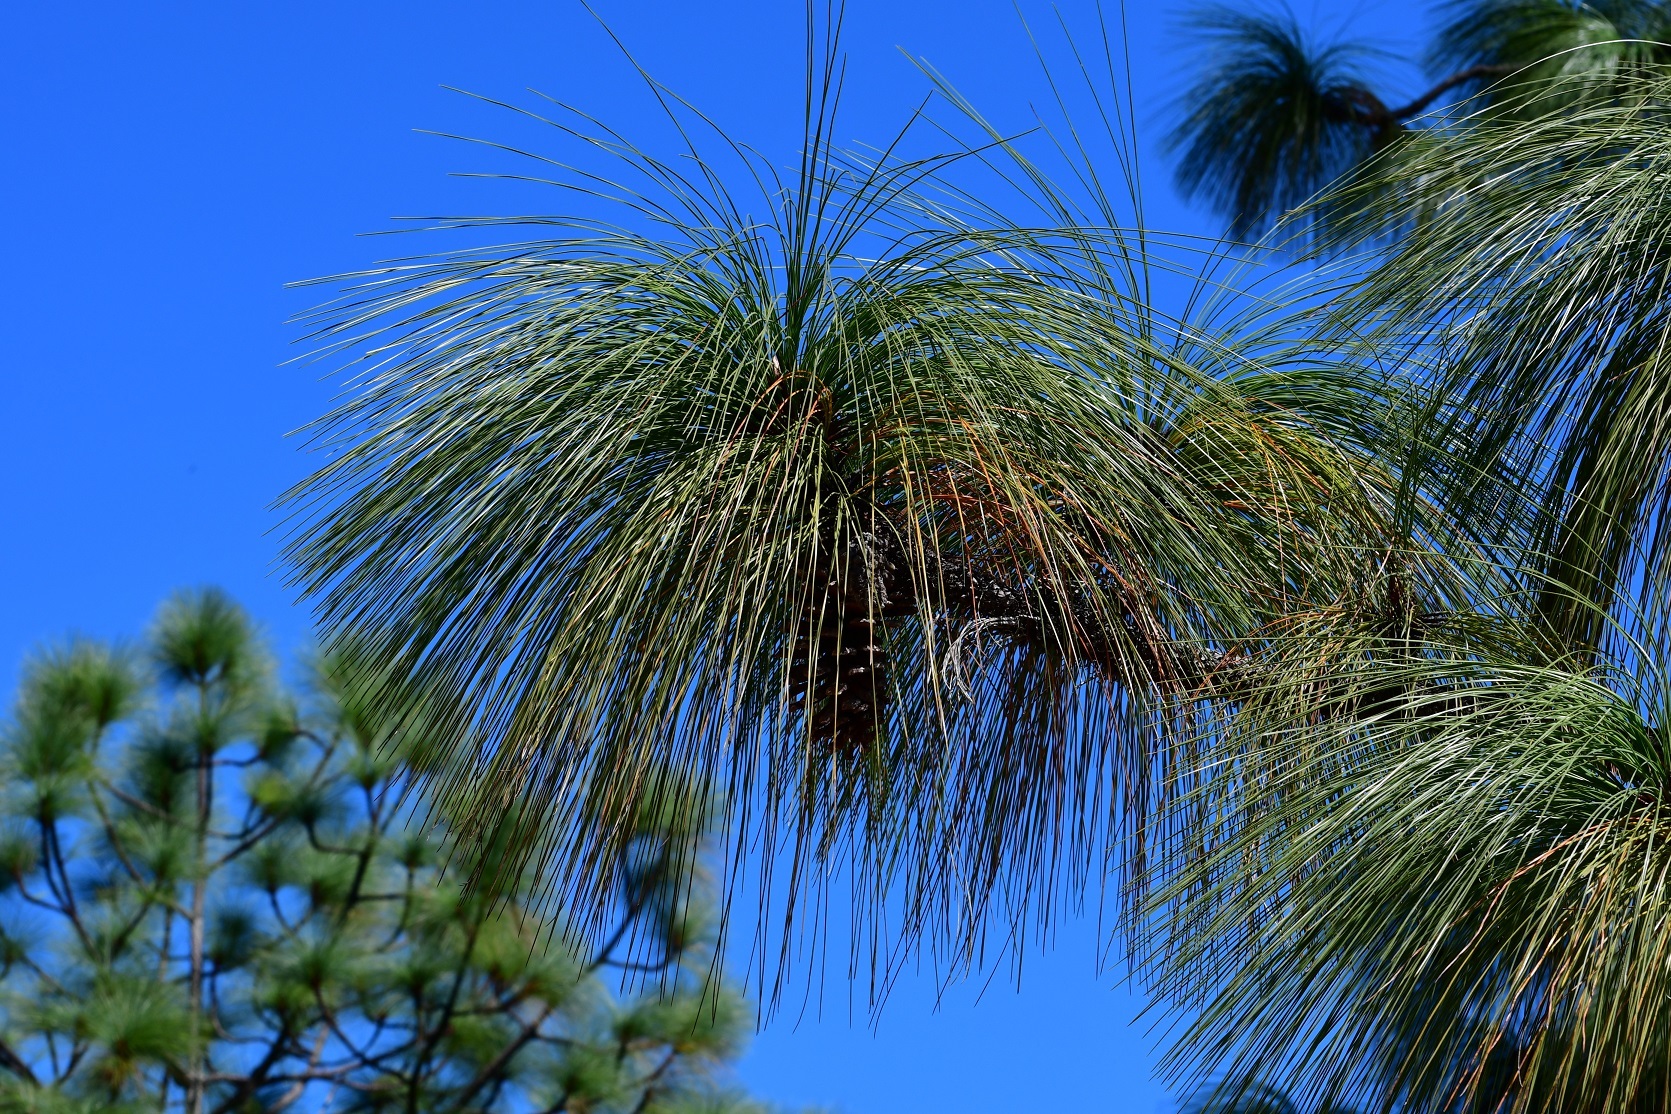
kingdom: Plantae
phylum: Tracheophyta
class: Pinopsida
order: Pinales
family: Pinaceae
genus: Pinus
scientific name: Pinus devoniana
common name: Michoacan pine
